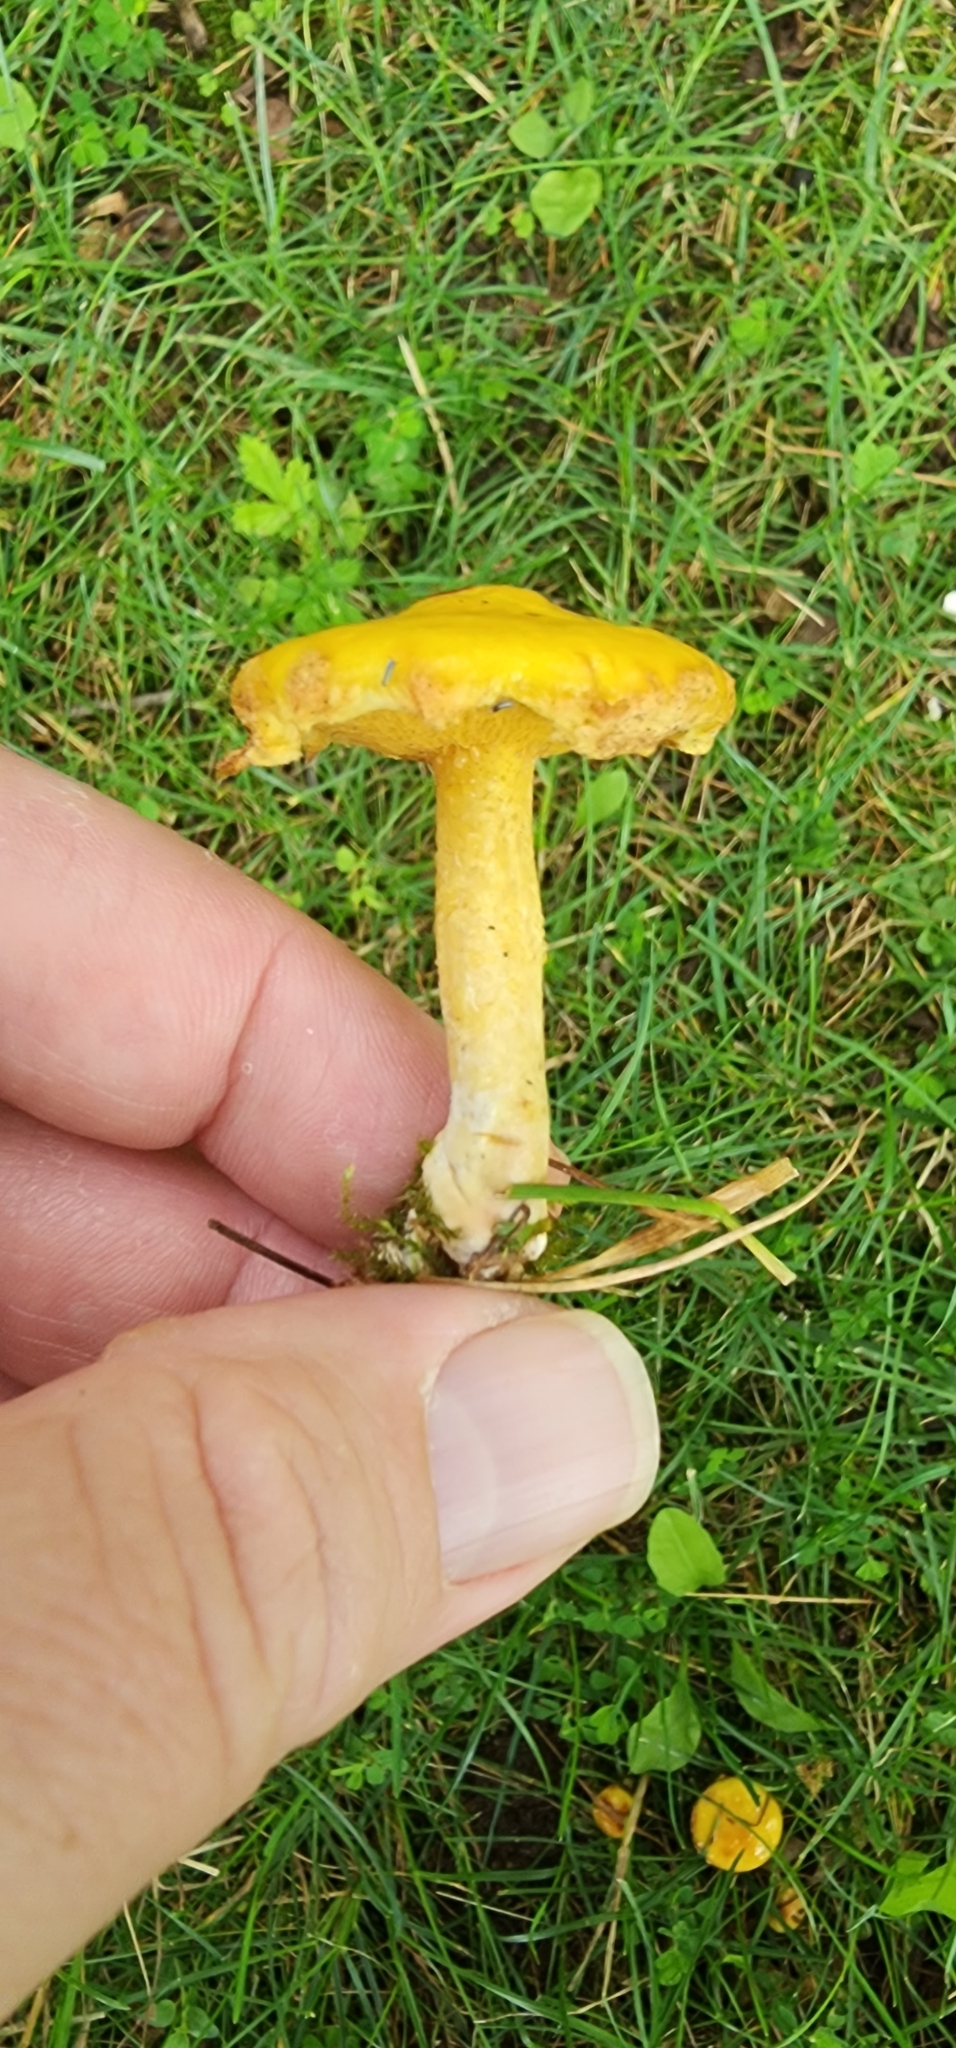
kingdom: Fungi
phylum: Basidiomycota
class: Agaricomycetes
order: Boletales
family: Suillaceae
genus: Suillus
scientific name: Suillus americanus
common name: Chicken fat mushroom
